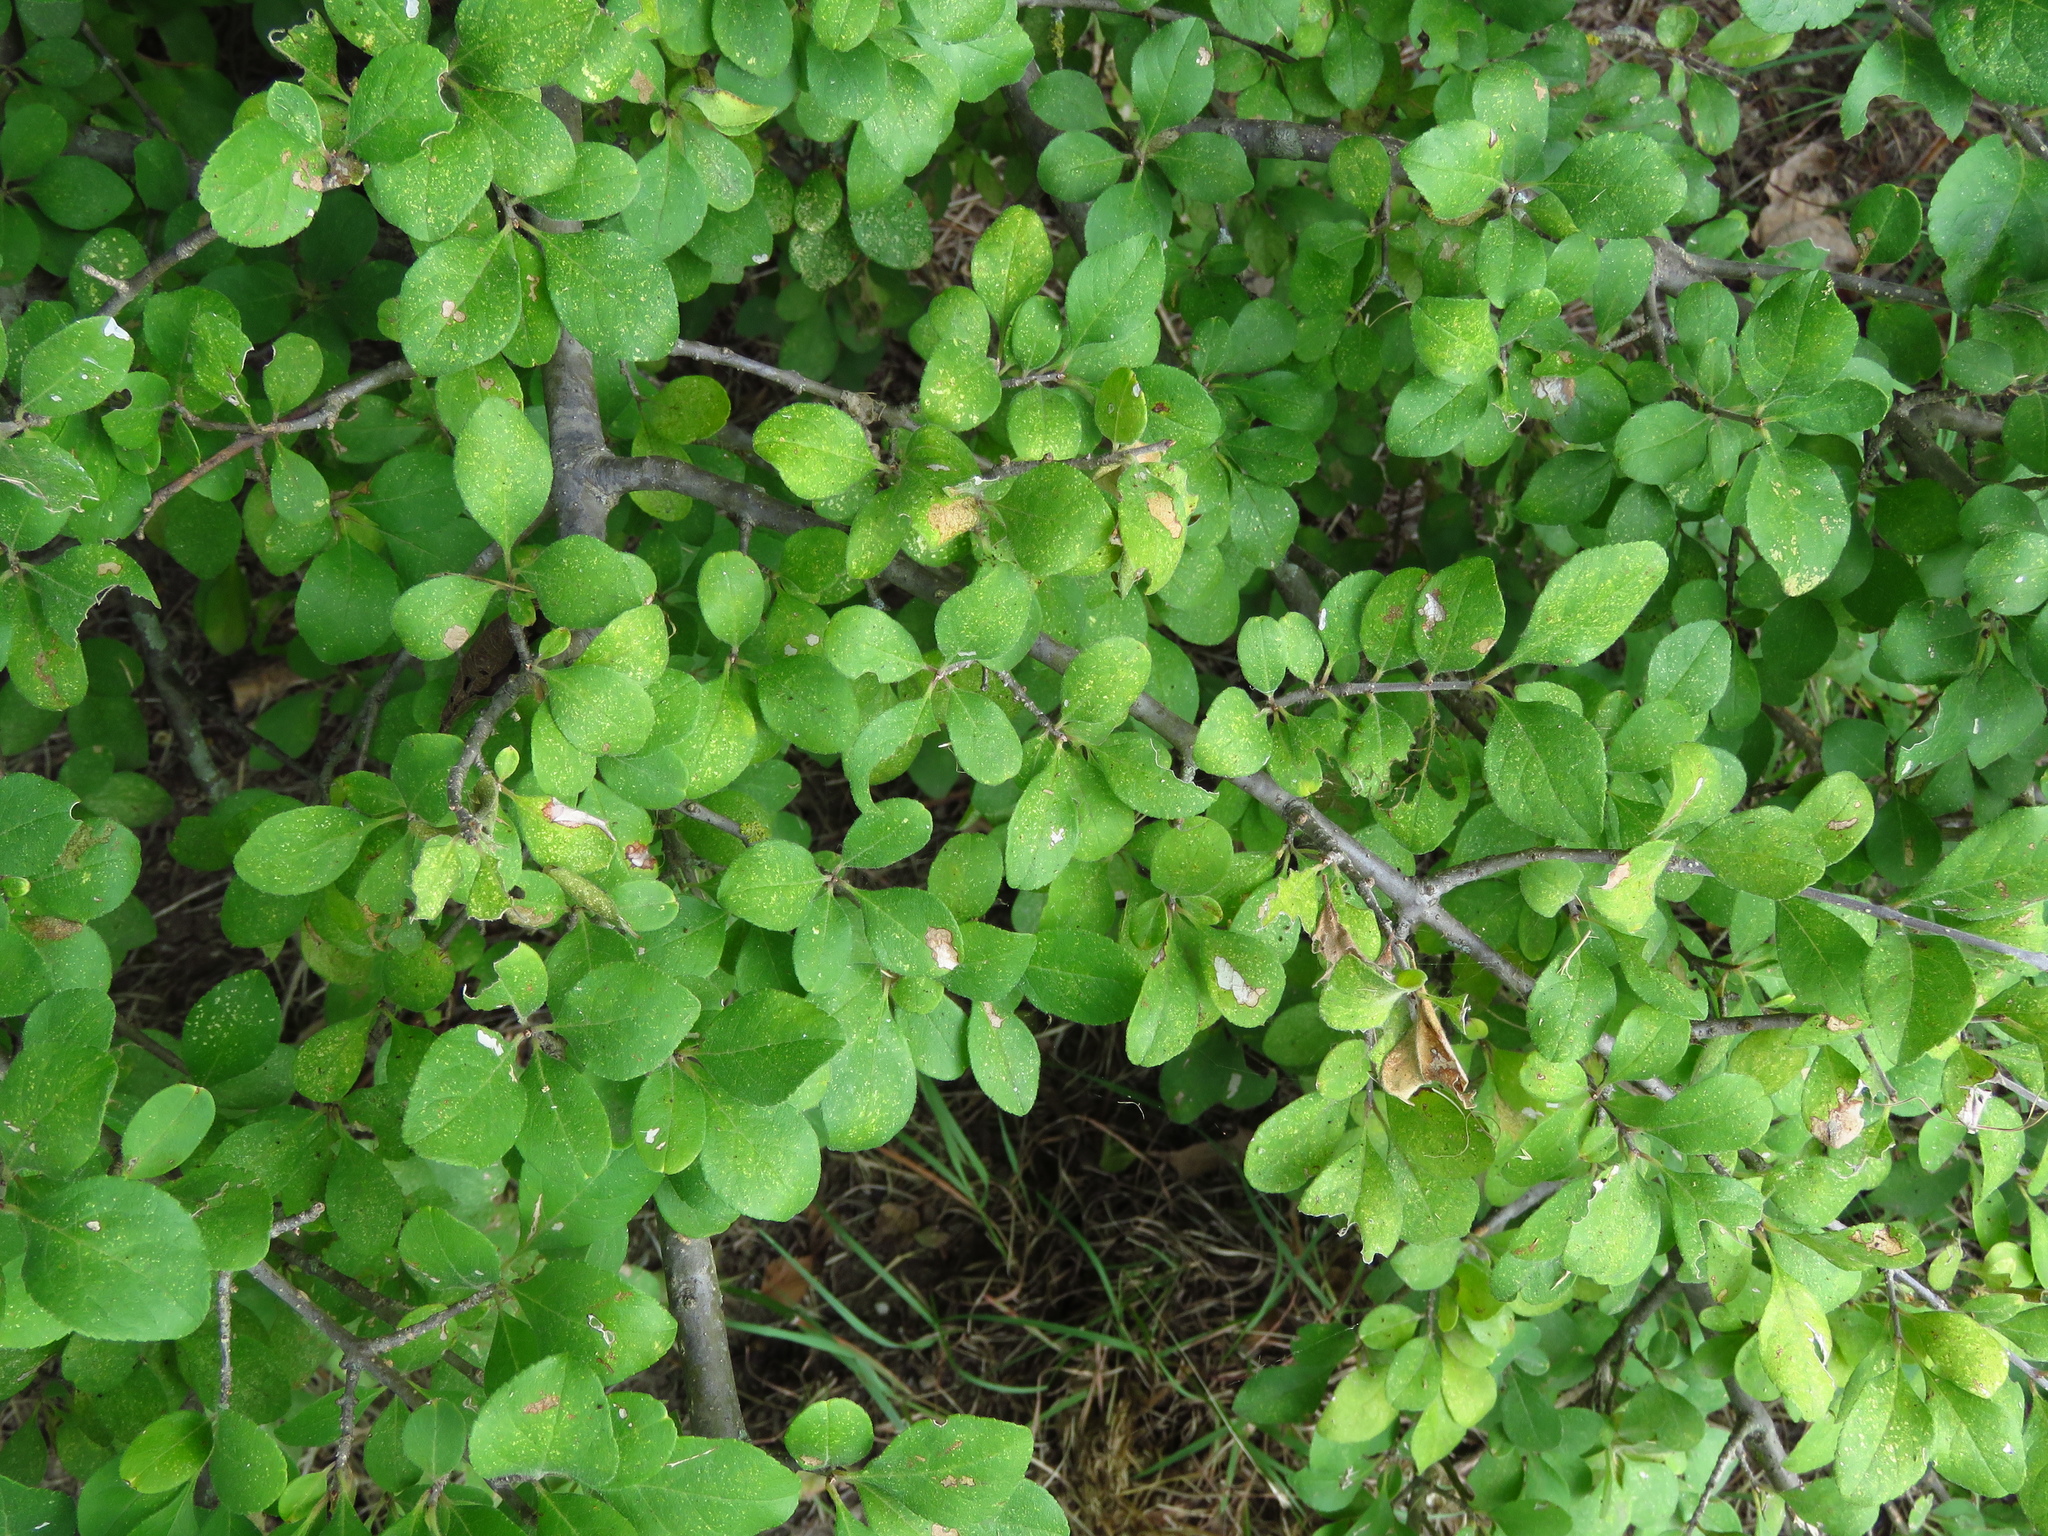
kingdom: Plantae
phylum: Tracheophyta
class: Magnoliopsida
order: Lamiales
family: Oleaceae
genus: Forestiera
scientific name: Forestiera pubescens
